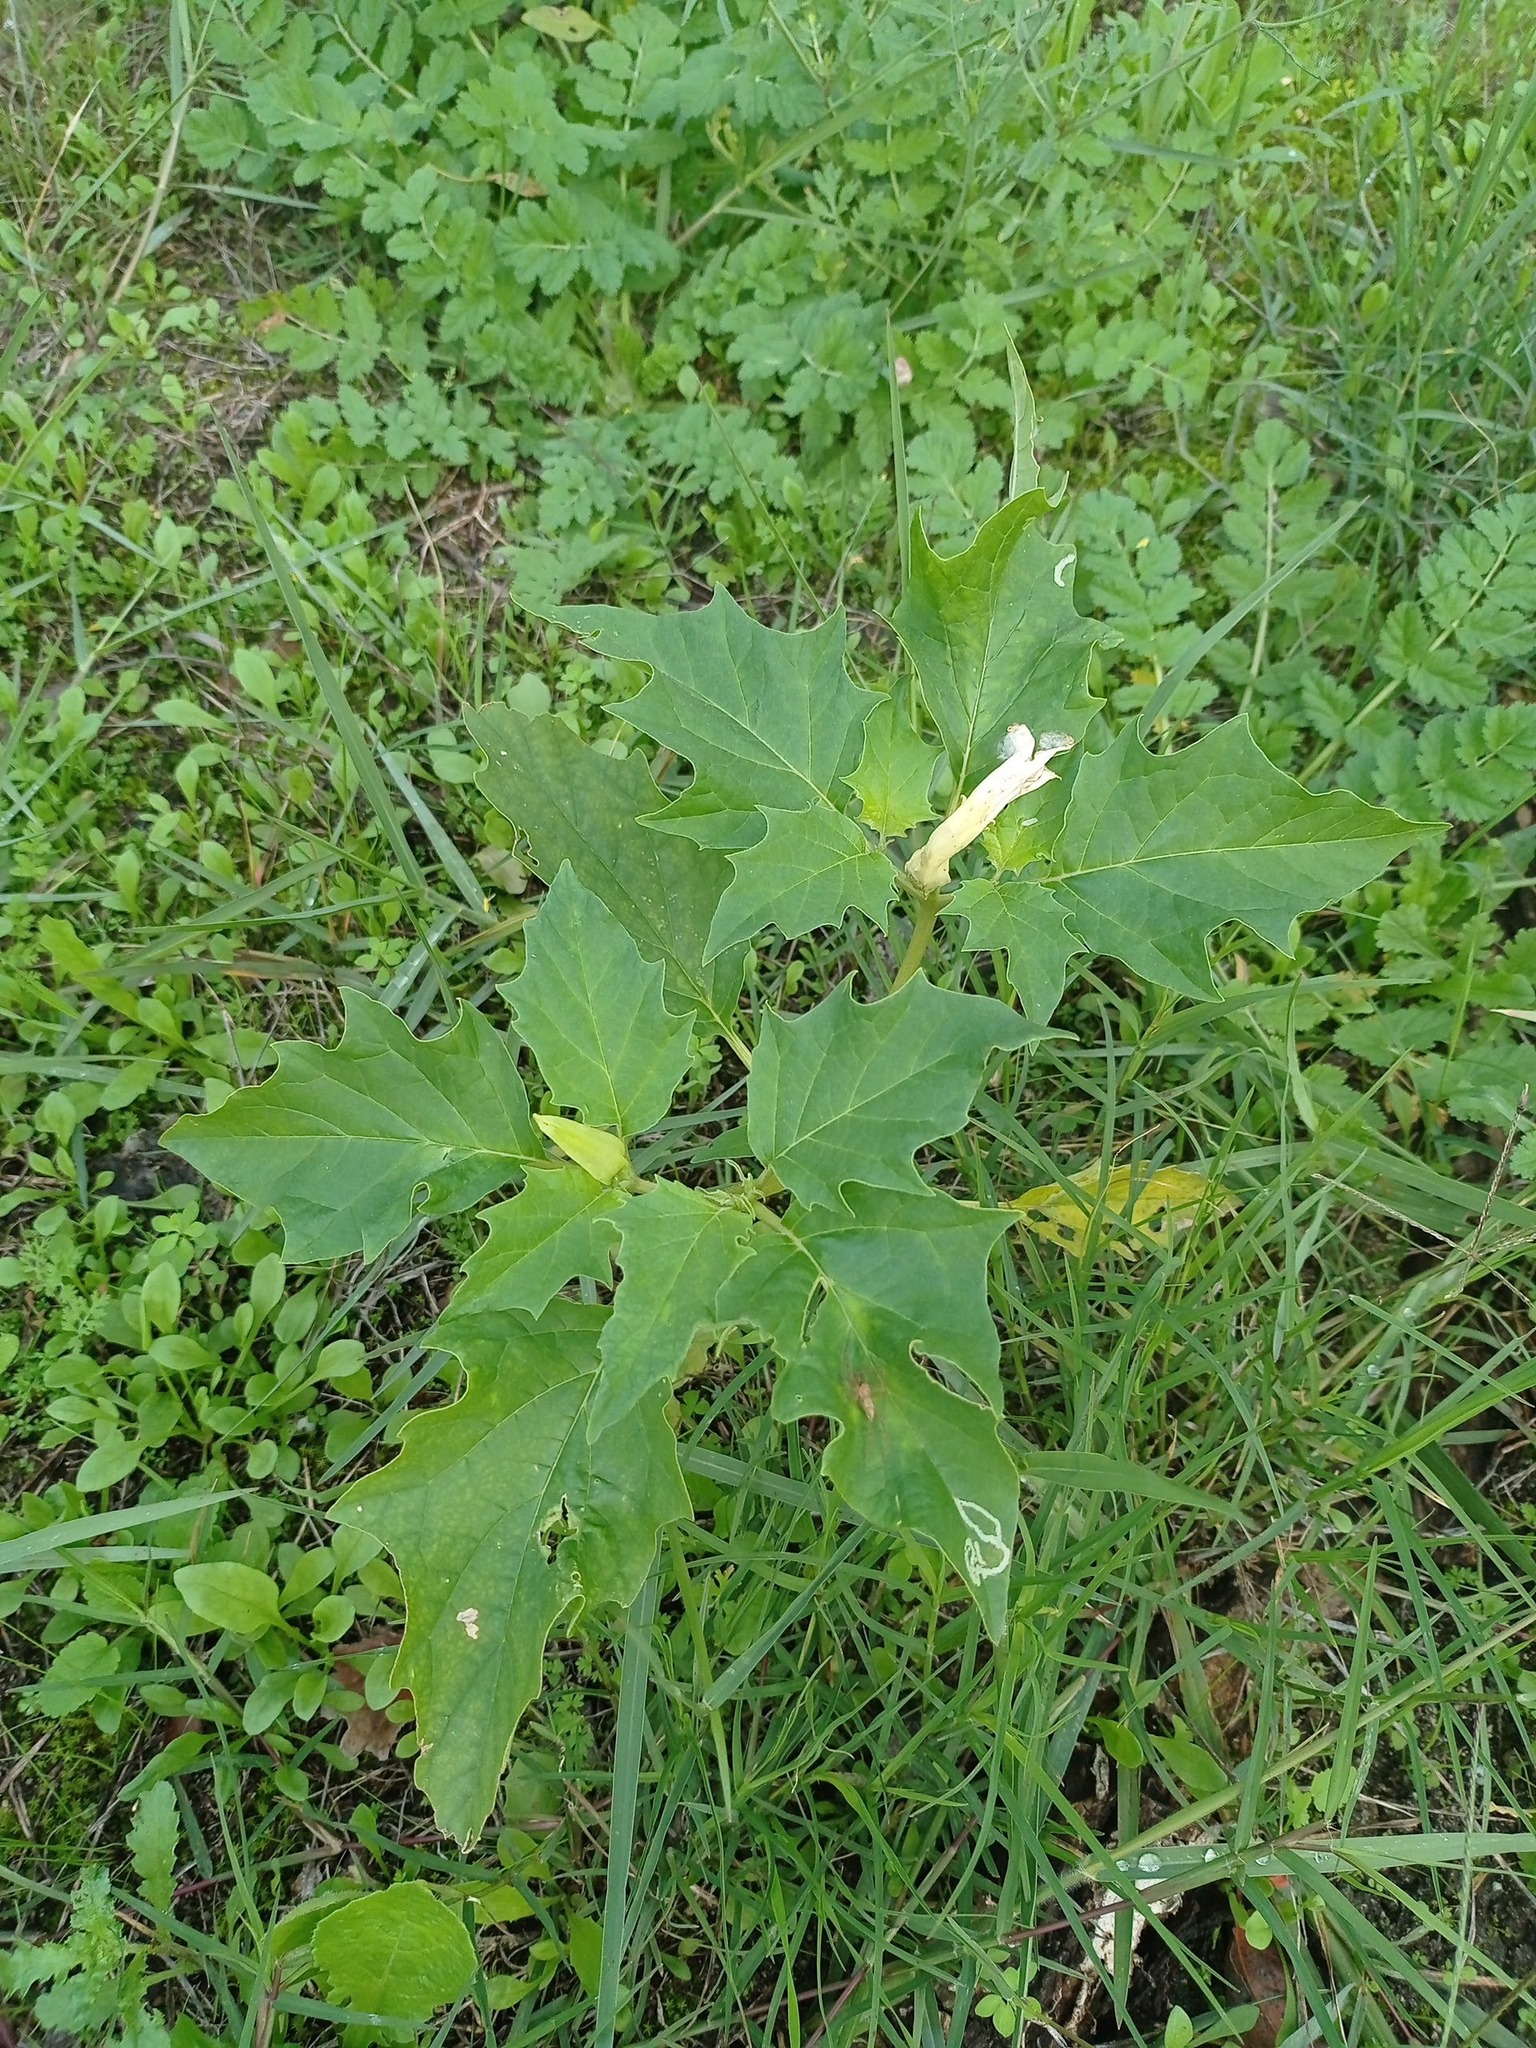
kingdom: Plantae
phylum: Tracheophyta
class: Magnoliopsida
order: Solanales
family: Solanaceae
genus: Datura
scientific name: Datura stramonium
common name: Thorn-apple
